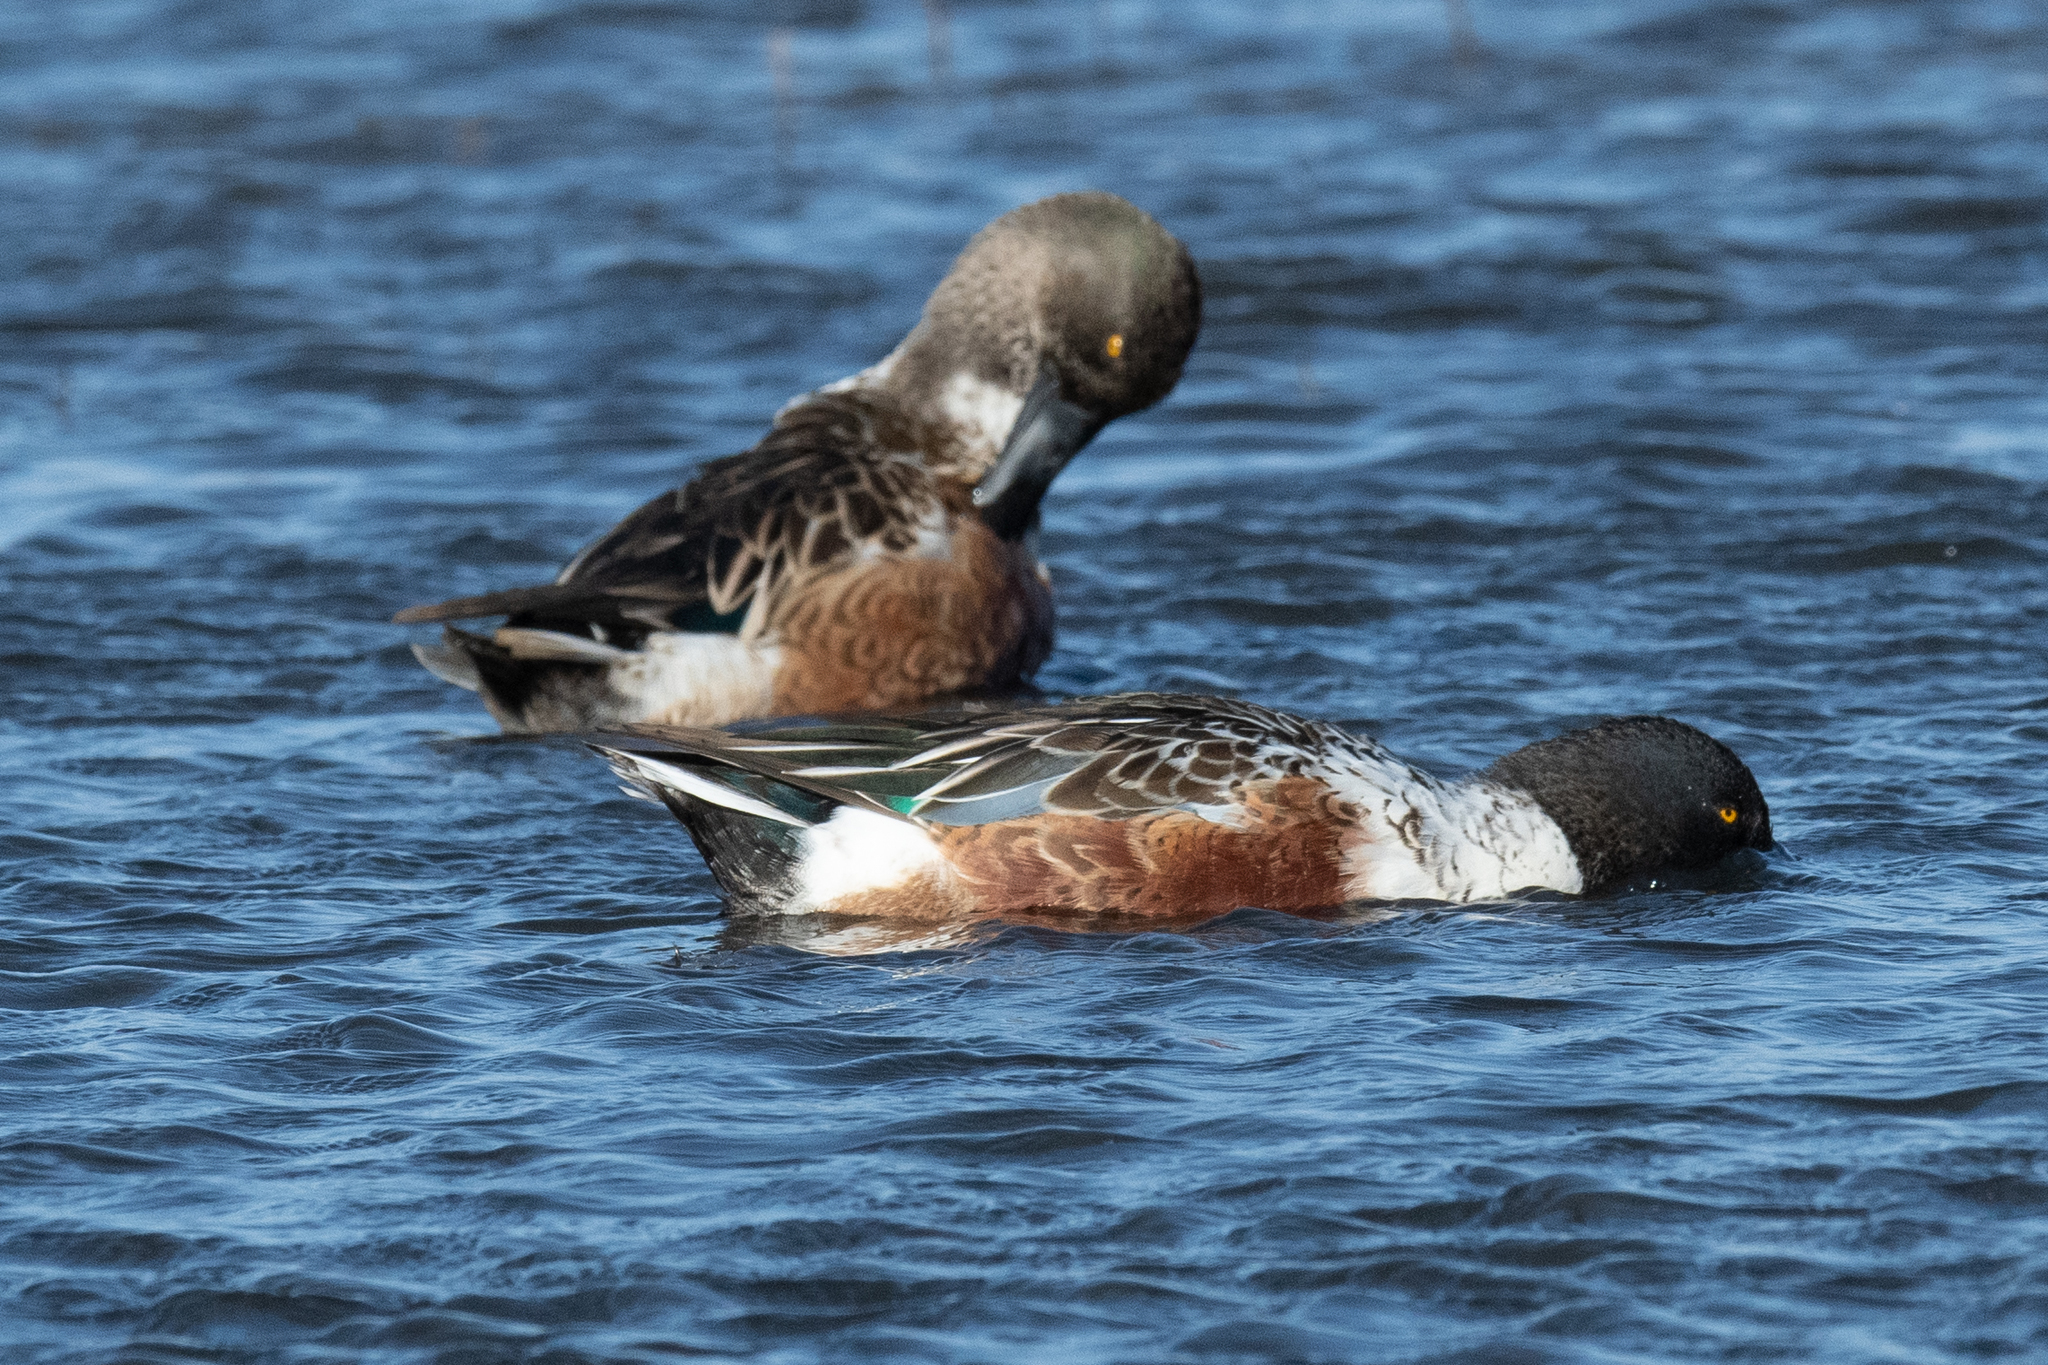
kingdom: Animalia
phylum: Chordata
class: Aves
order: Anseriformes
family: Anatidae
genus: Spatula
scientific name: Spatula clypeata
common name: Northern shoveler
